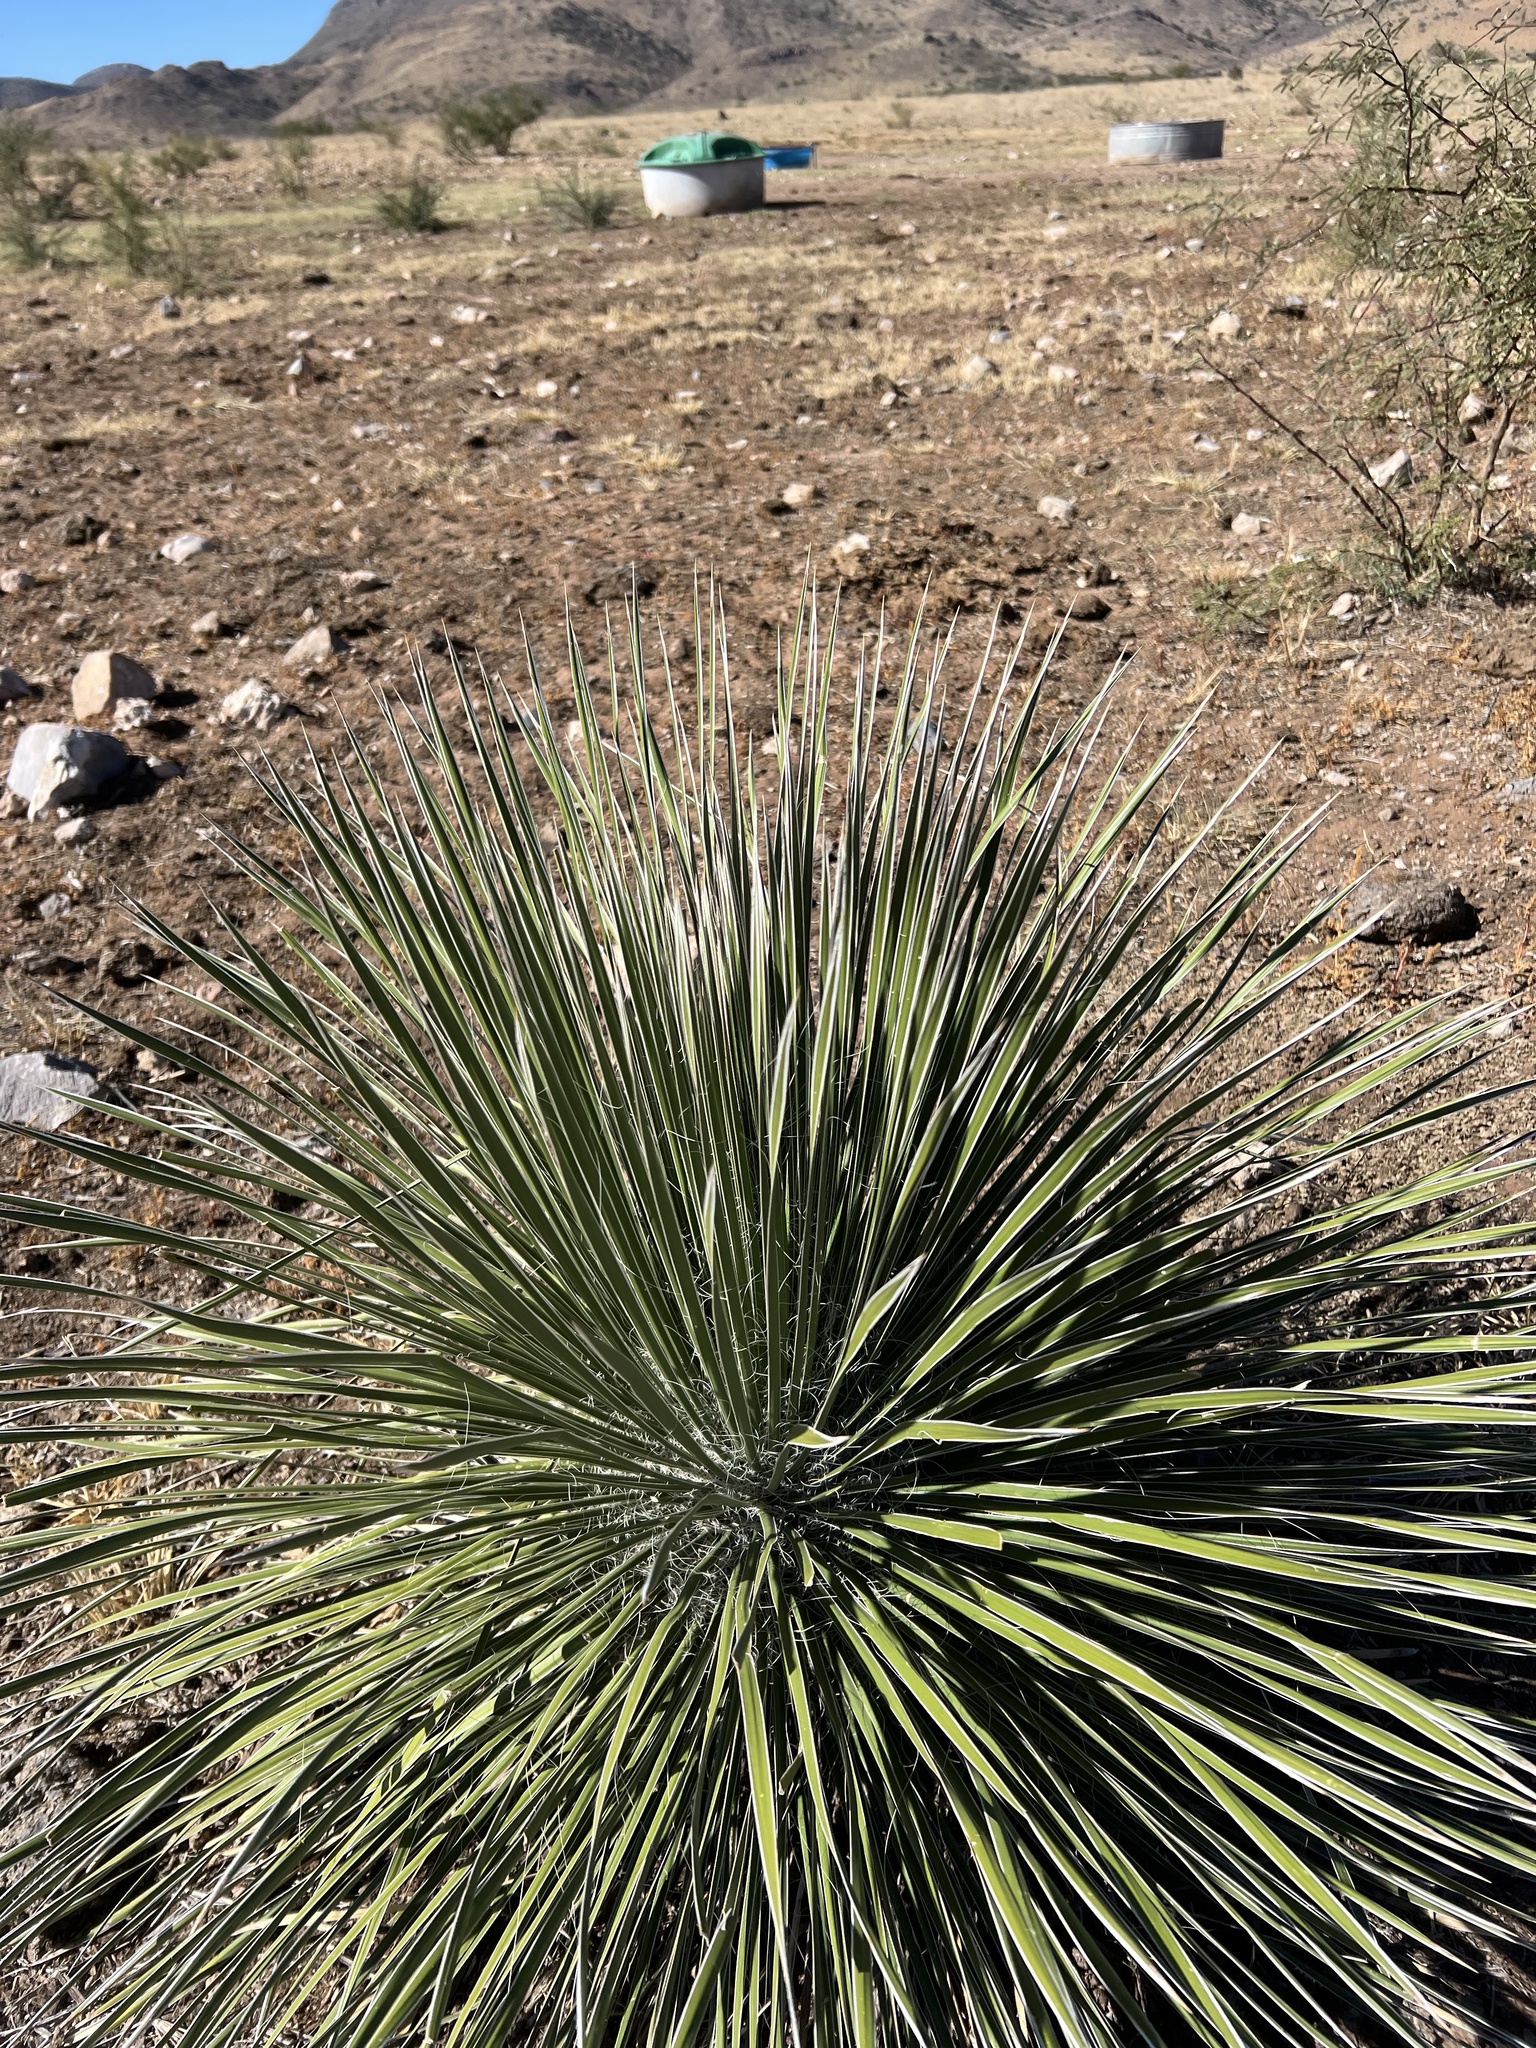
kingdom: Plantae
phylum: Tracheophyta
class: Liliopsida
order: Asparagales
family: Asparagaceae
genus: Yucca
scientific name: Yucca elata
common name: Palmella
